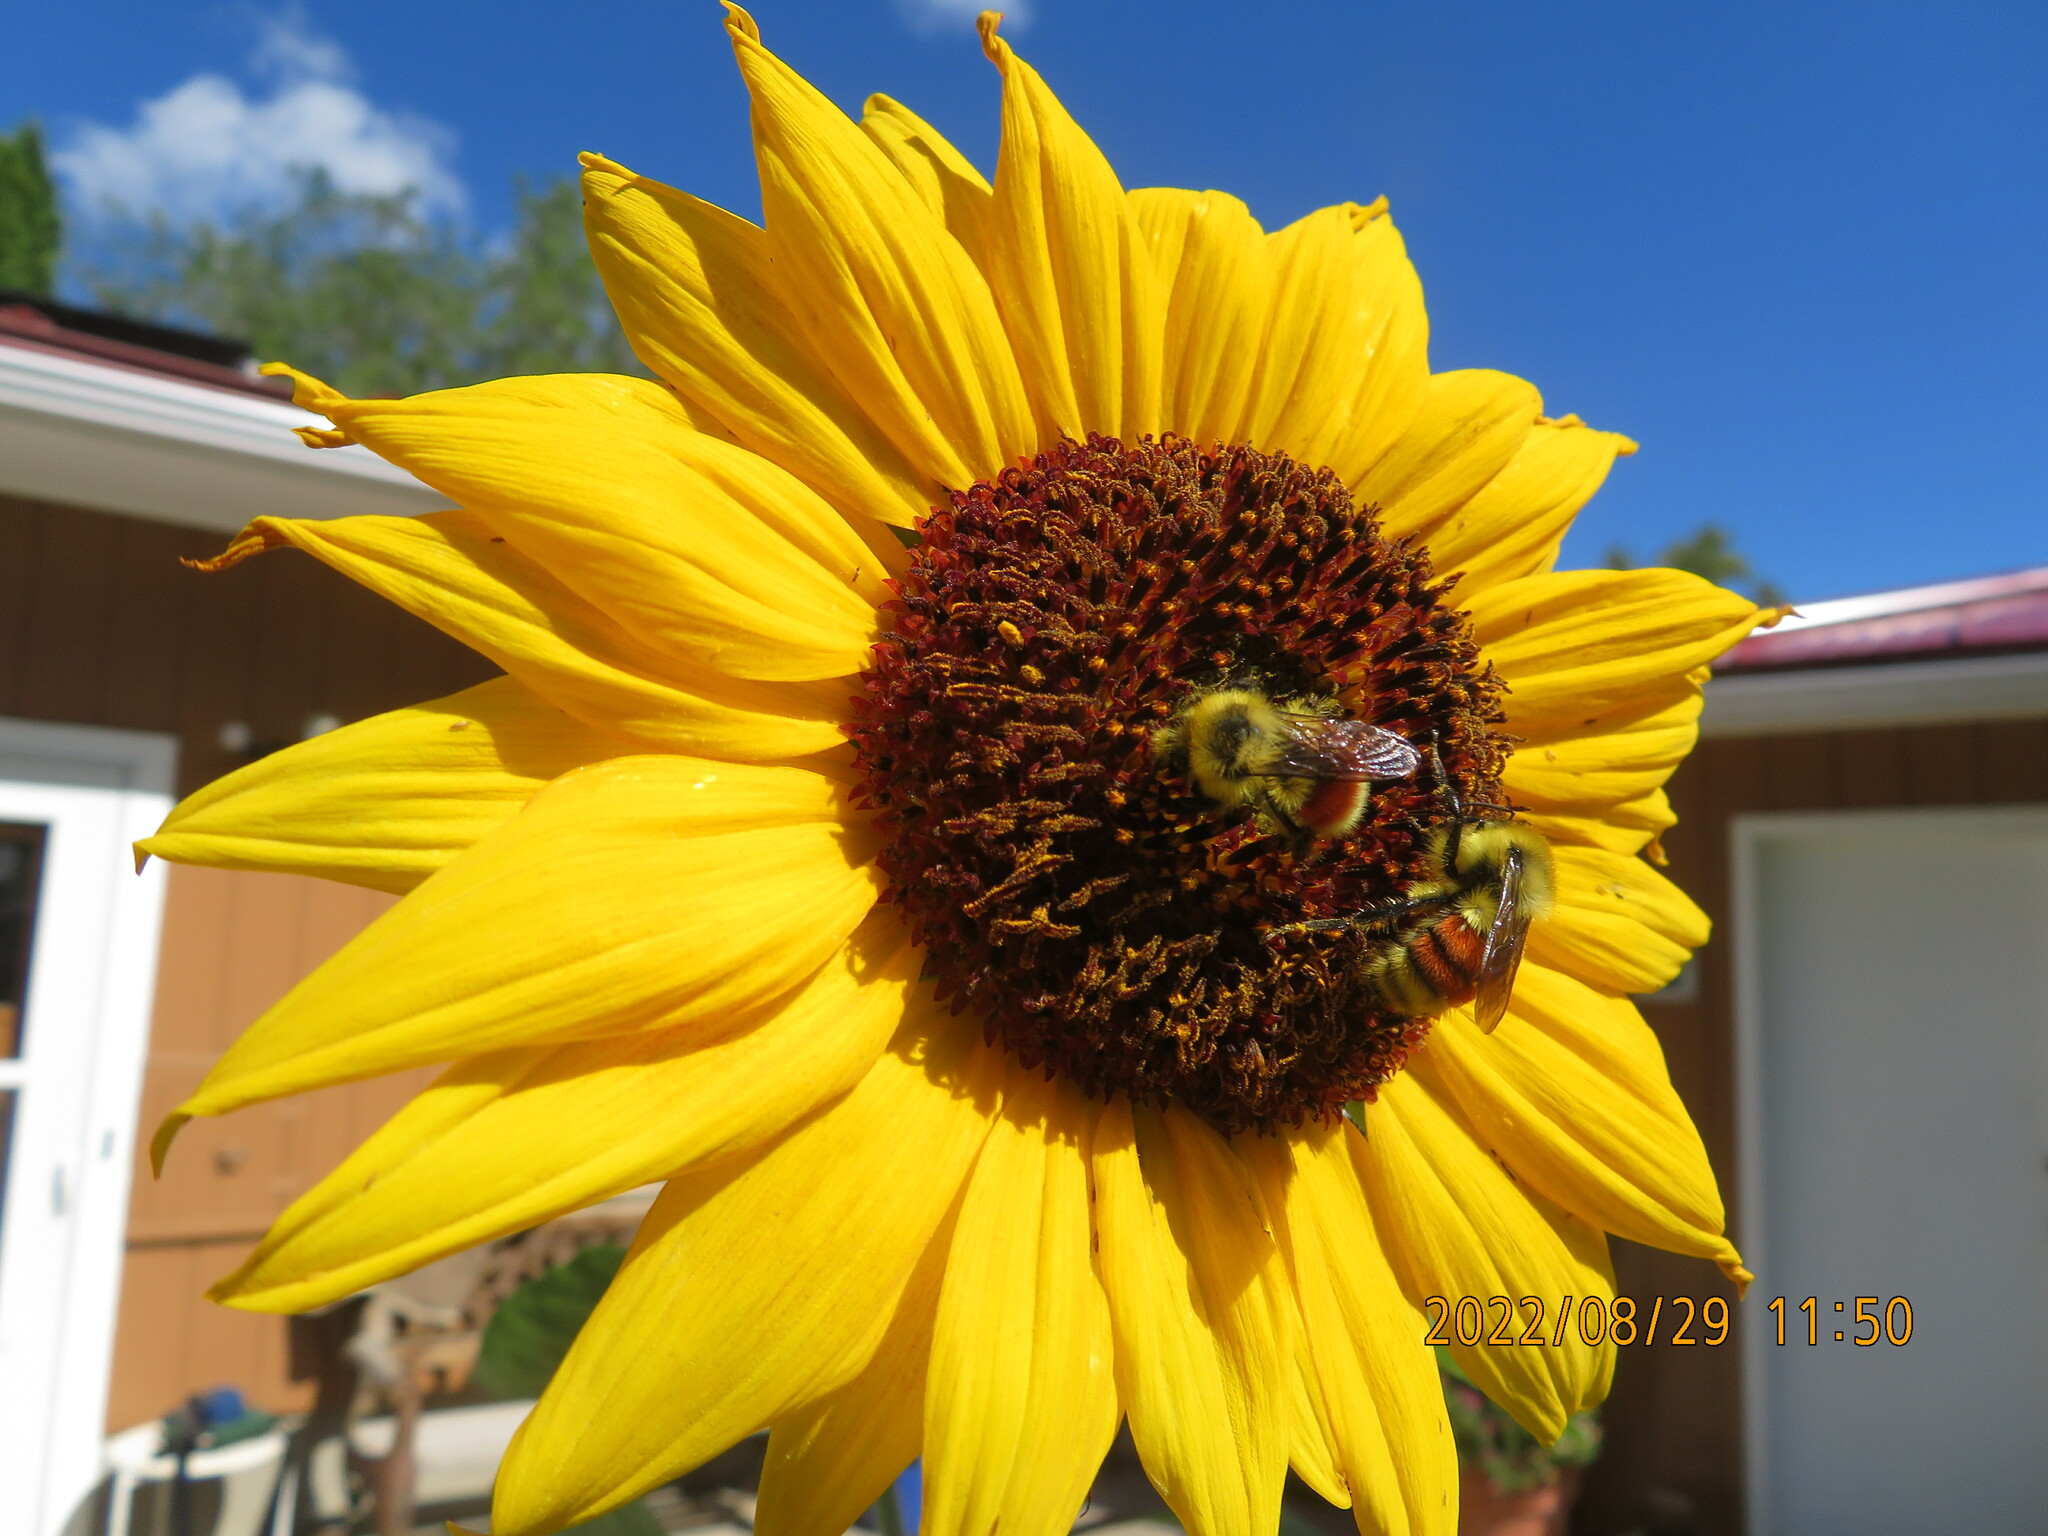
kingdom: Animalia
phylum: Arthropoda
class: Insecta
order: Hymenoptera
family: Apidae
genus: Bombus
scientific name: Bombus huntii
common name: Hunt bumble bee
